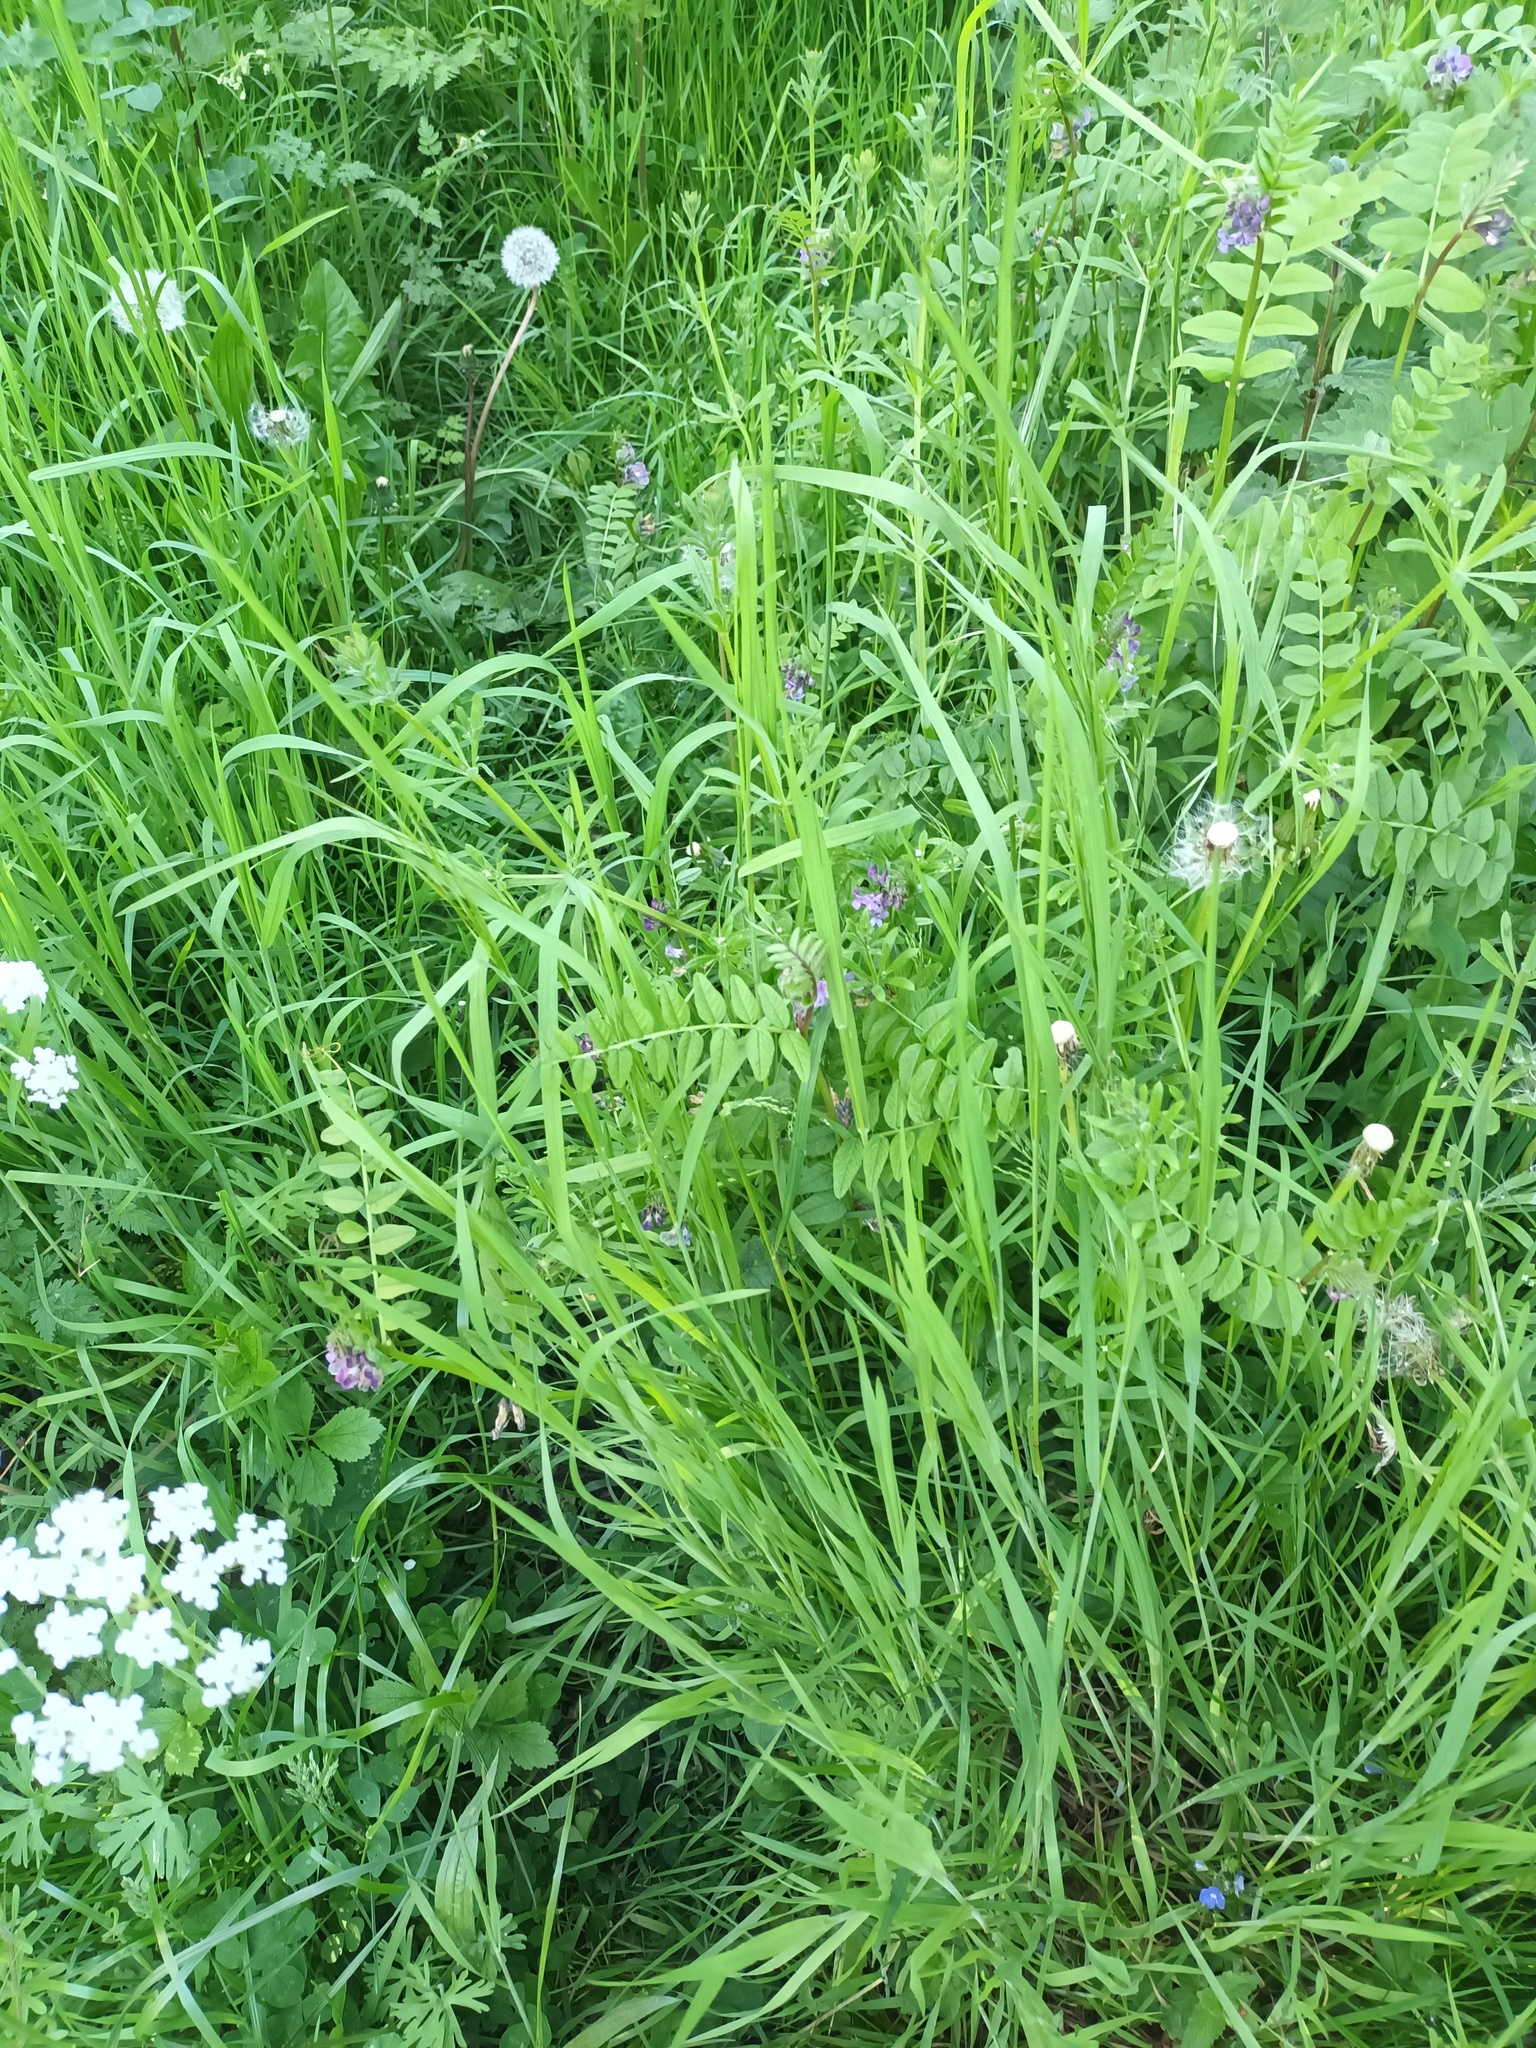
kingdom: Plantae
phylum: Tracheophyta
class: Magnoliopsida
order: Fabales
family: Fabaceae
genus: Vicia
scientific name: Vicia sepium
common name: Bush vetch
